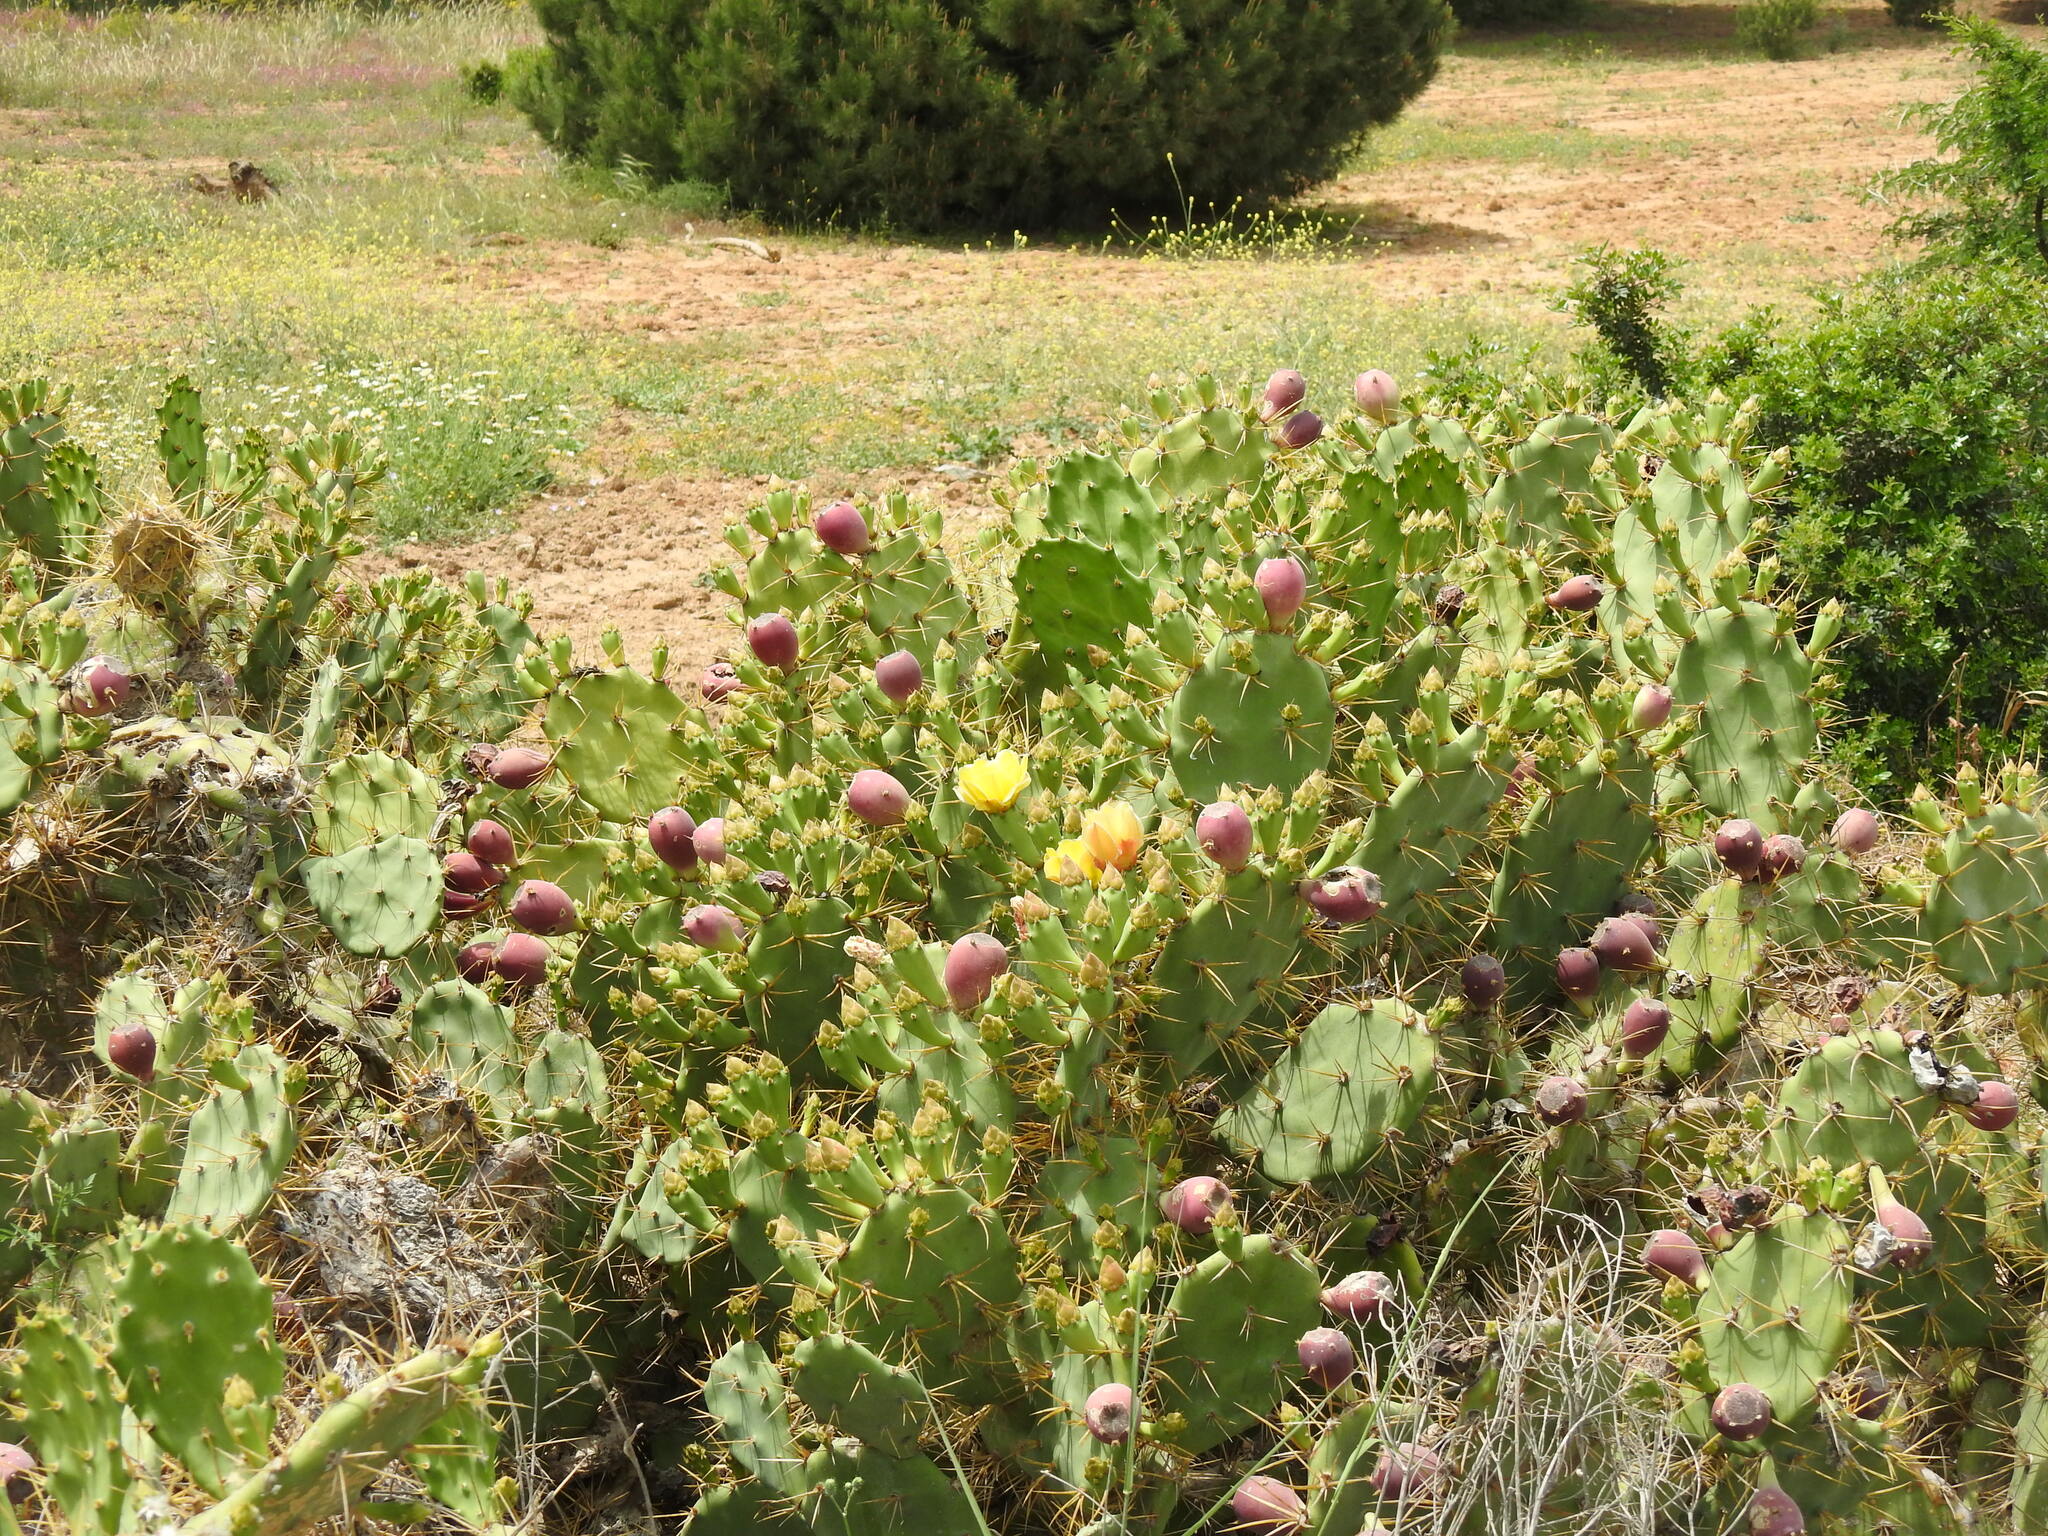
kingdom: Plantae
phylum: Tracheophyta
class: Magnoliopsida
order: Caryophyllales
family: Cactaceae
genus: Opuntia
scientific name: Opuntia stricta
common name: Erect pricklypear
